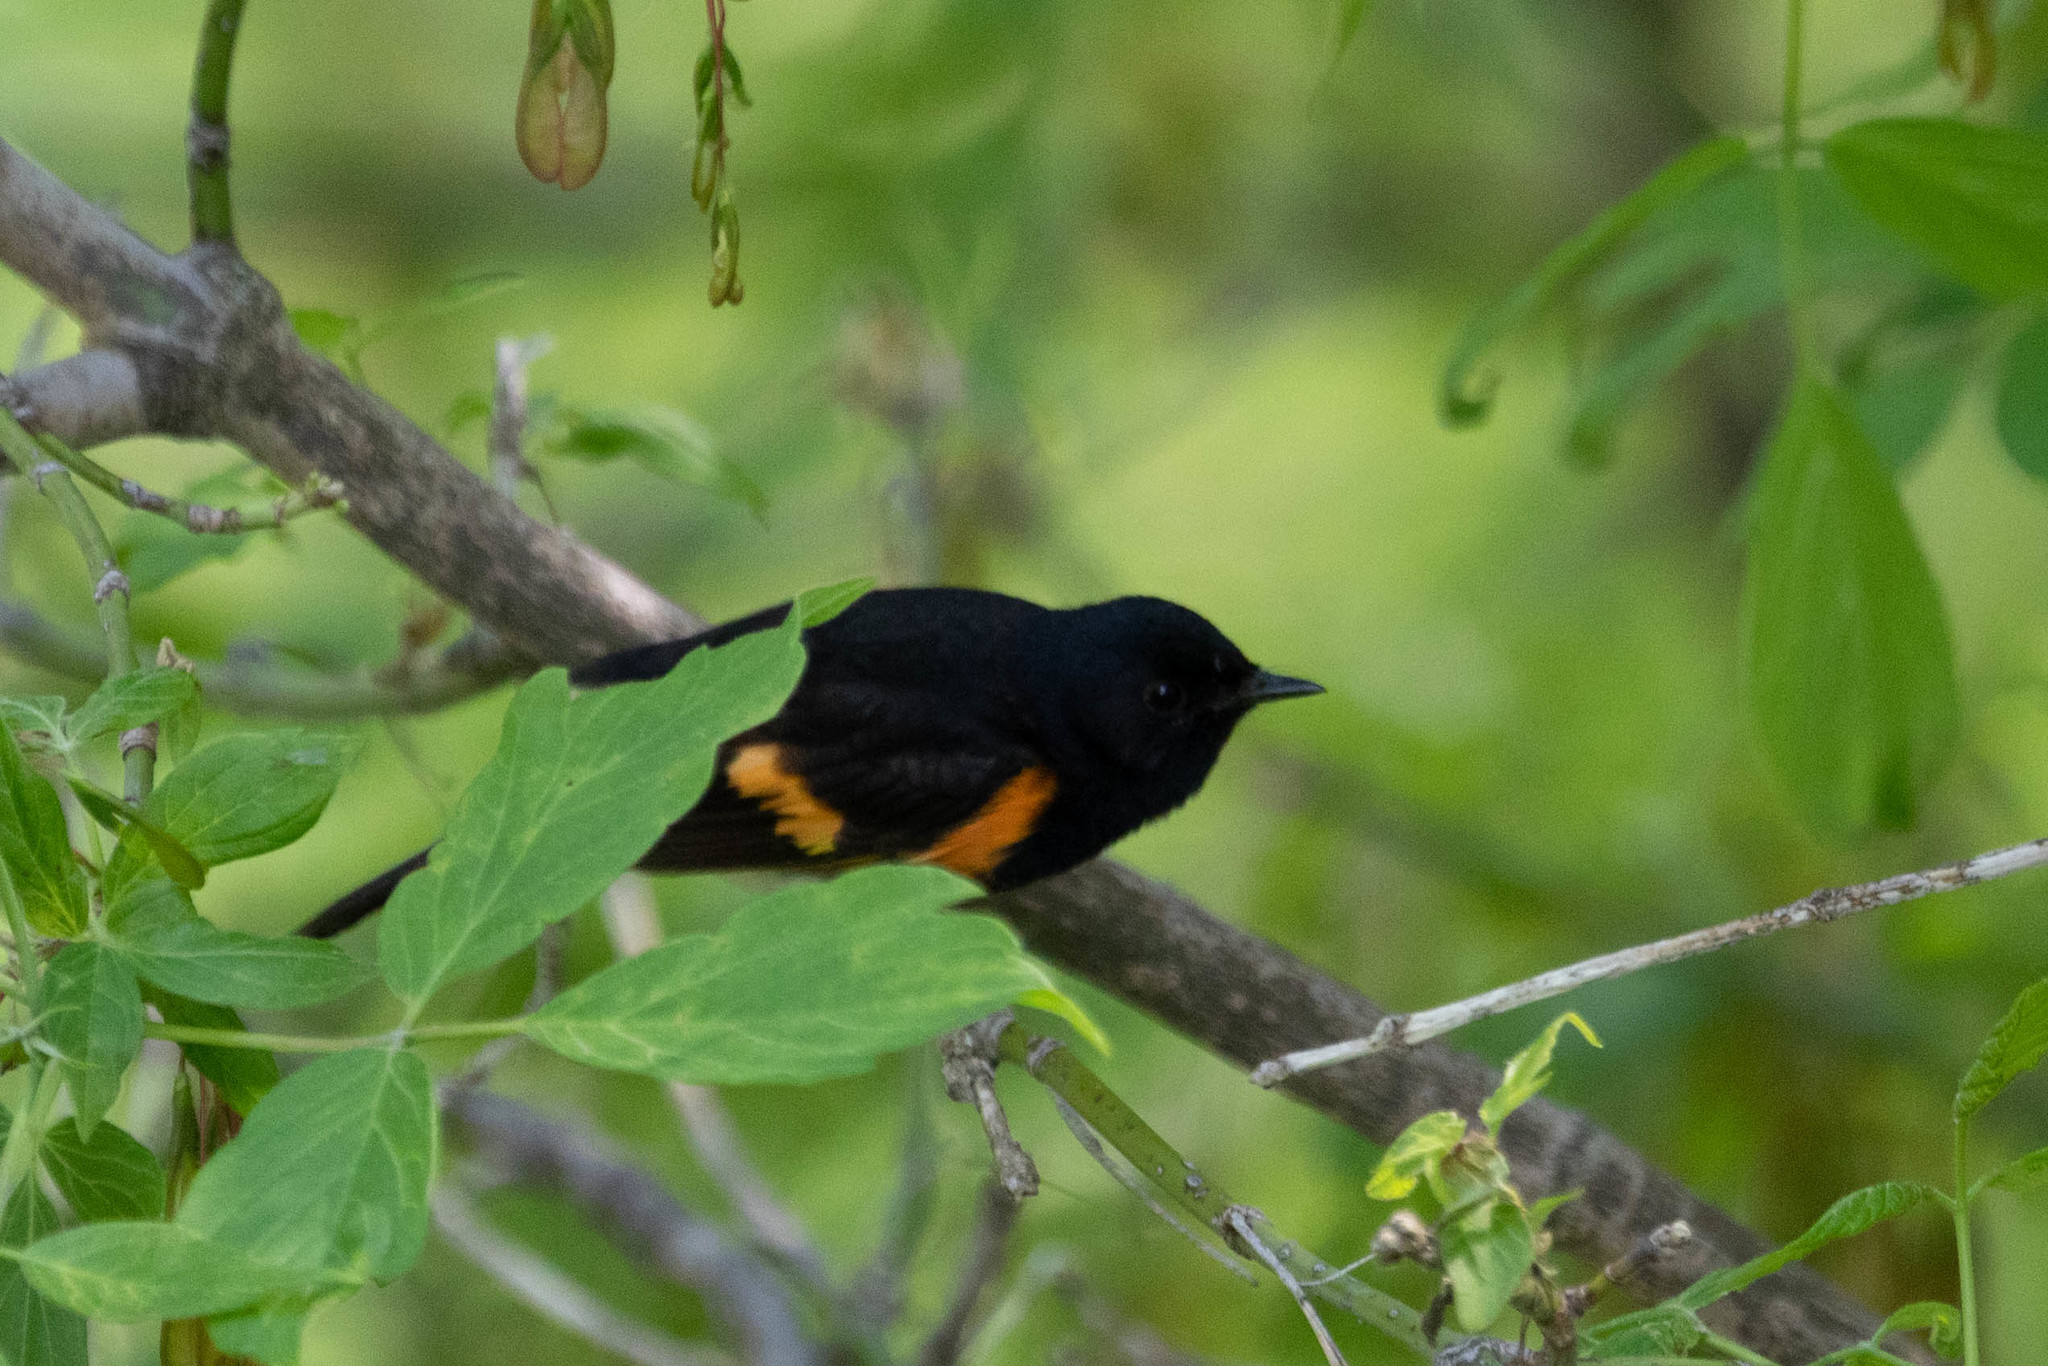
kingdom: Animalia
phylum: Chordata
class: Aves
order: Passeriformes
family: Parulidae
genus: Setophaga
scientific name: Setophaga ruticilla
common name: American redstart
